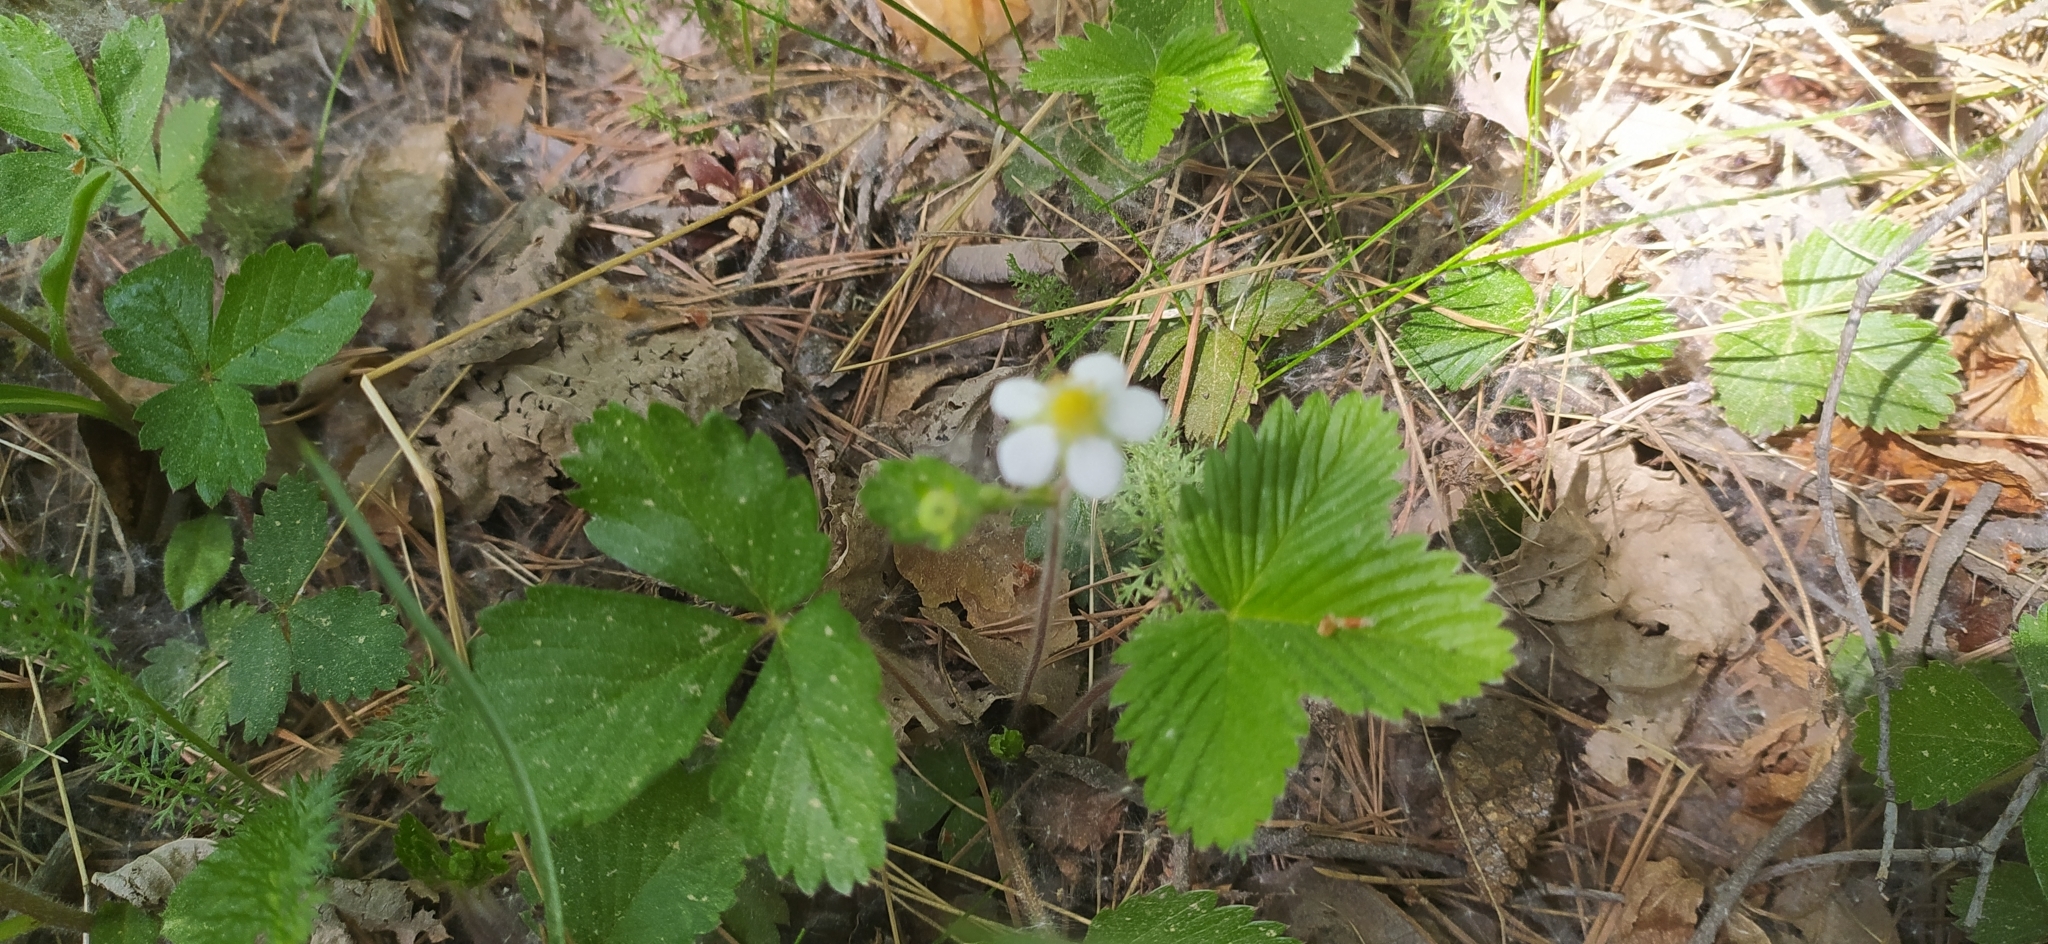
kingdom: Plantae
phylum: Tracheophyta
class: Magnoliopsida
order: Rosales
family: Rosaceae
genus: Fragaria
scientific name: Fragaria vesca
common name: Wild strawberry
